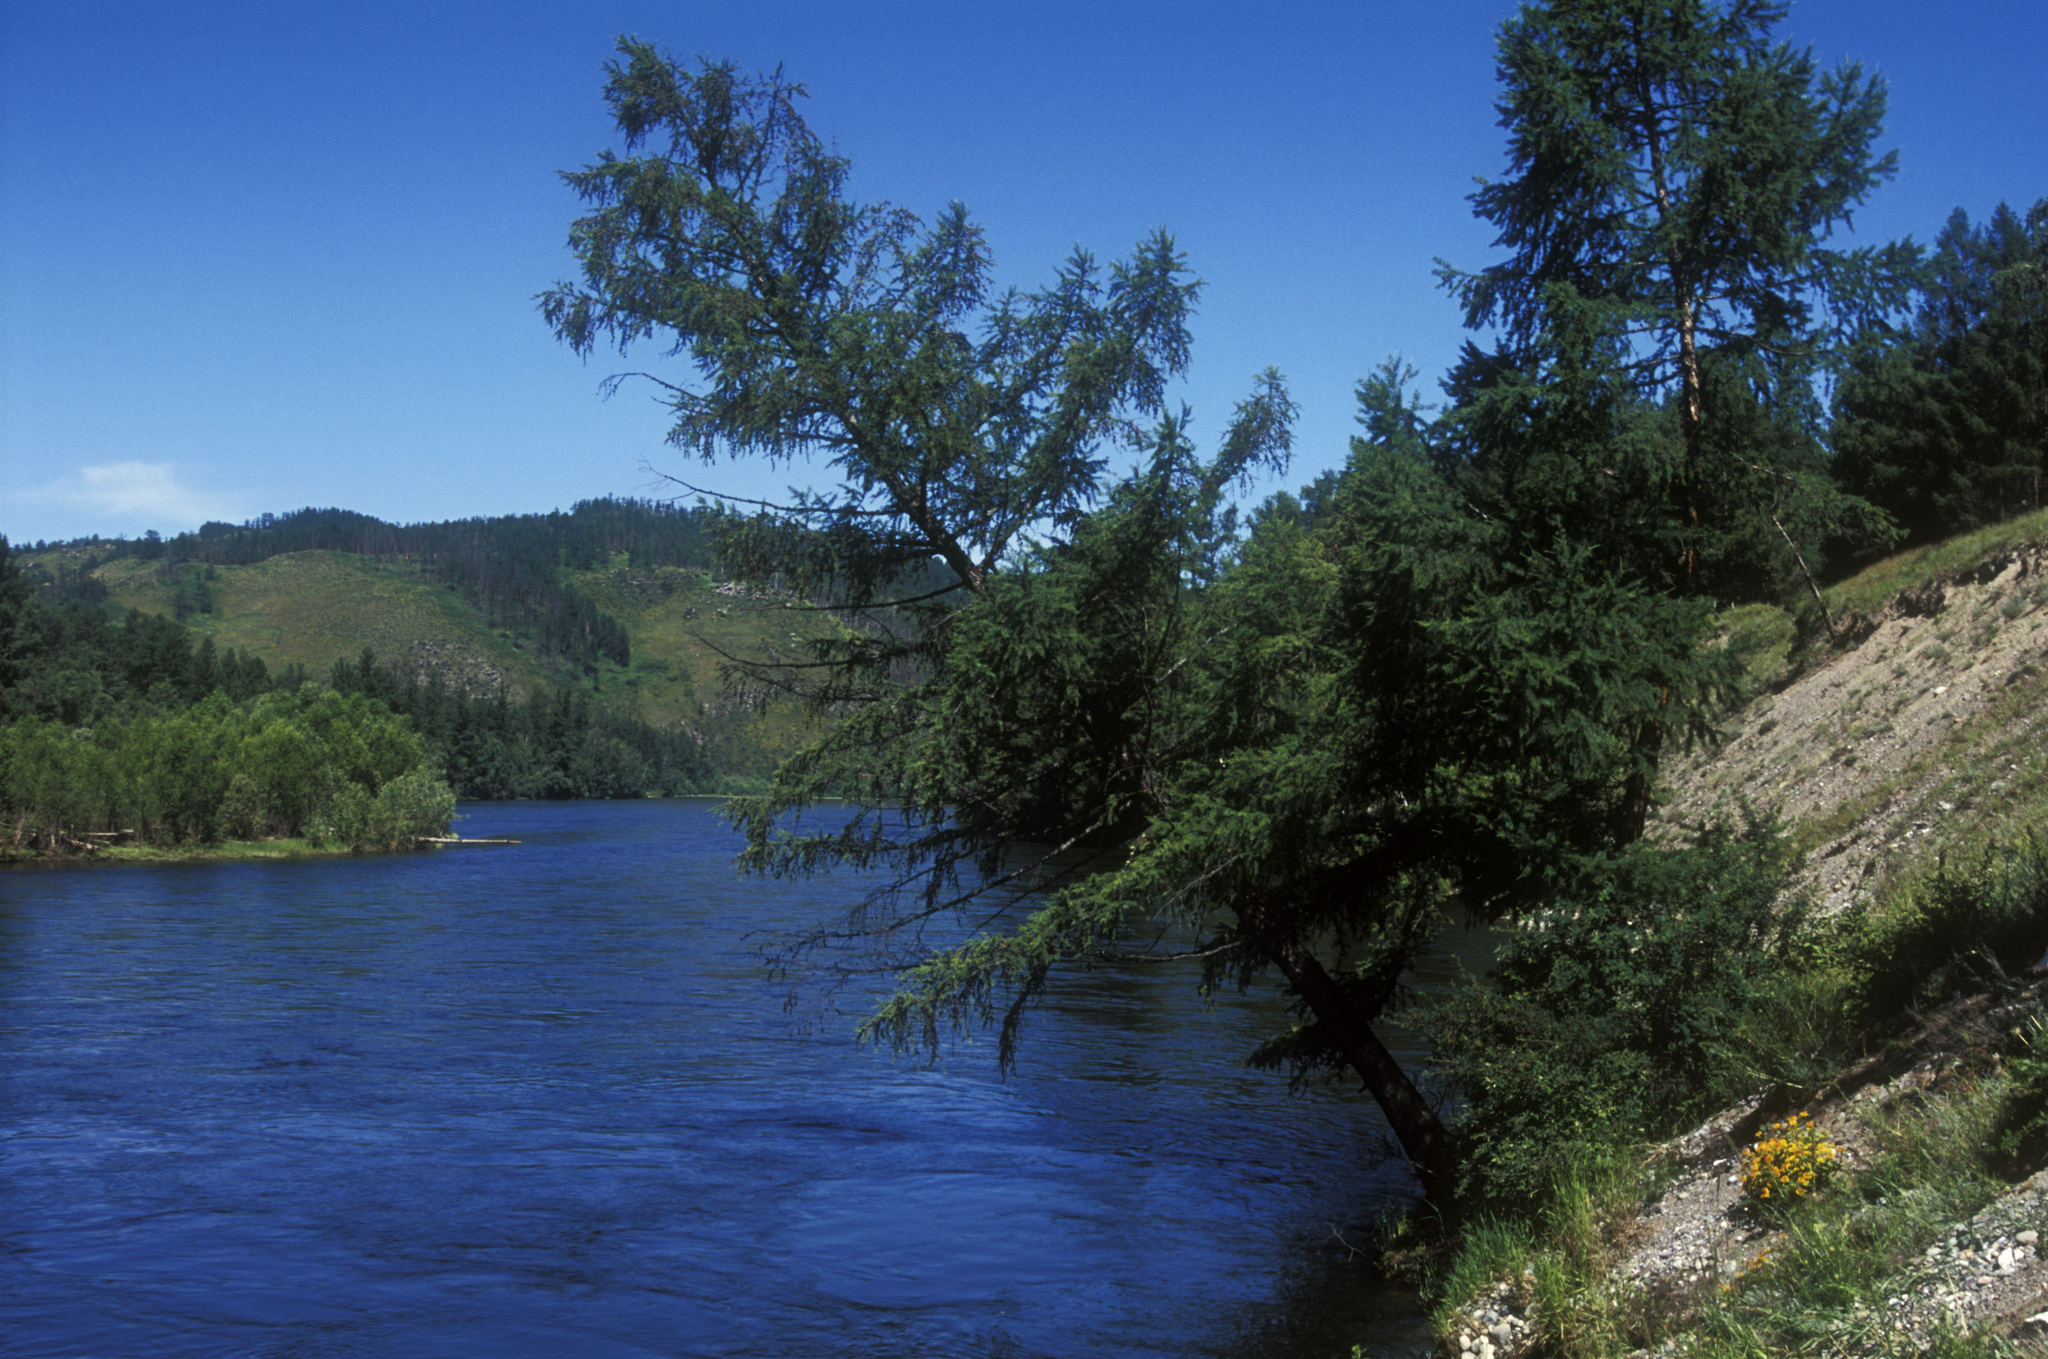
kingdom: Plantae
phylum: Tracheophyta
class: Pinopsida
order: Pinales
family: Pinaceae
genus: Larix
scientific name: Larix sibirica
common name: Siberian larch
